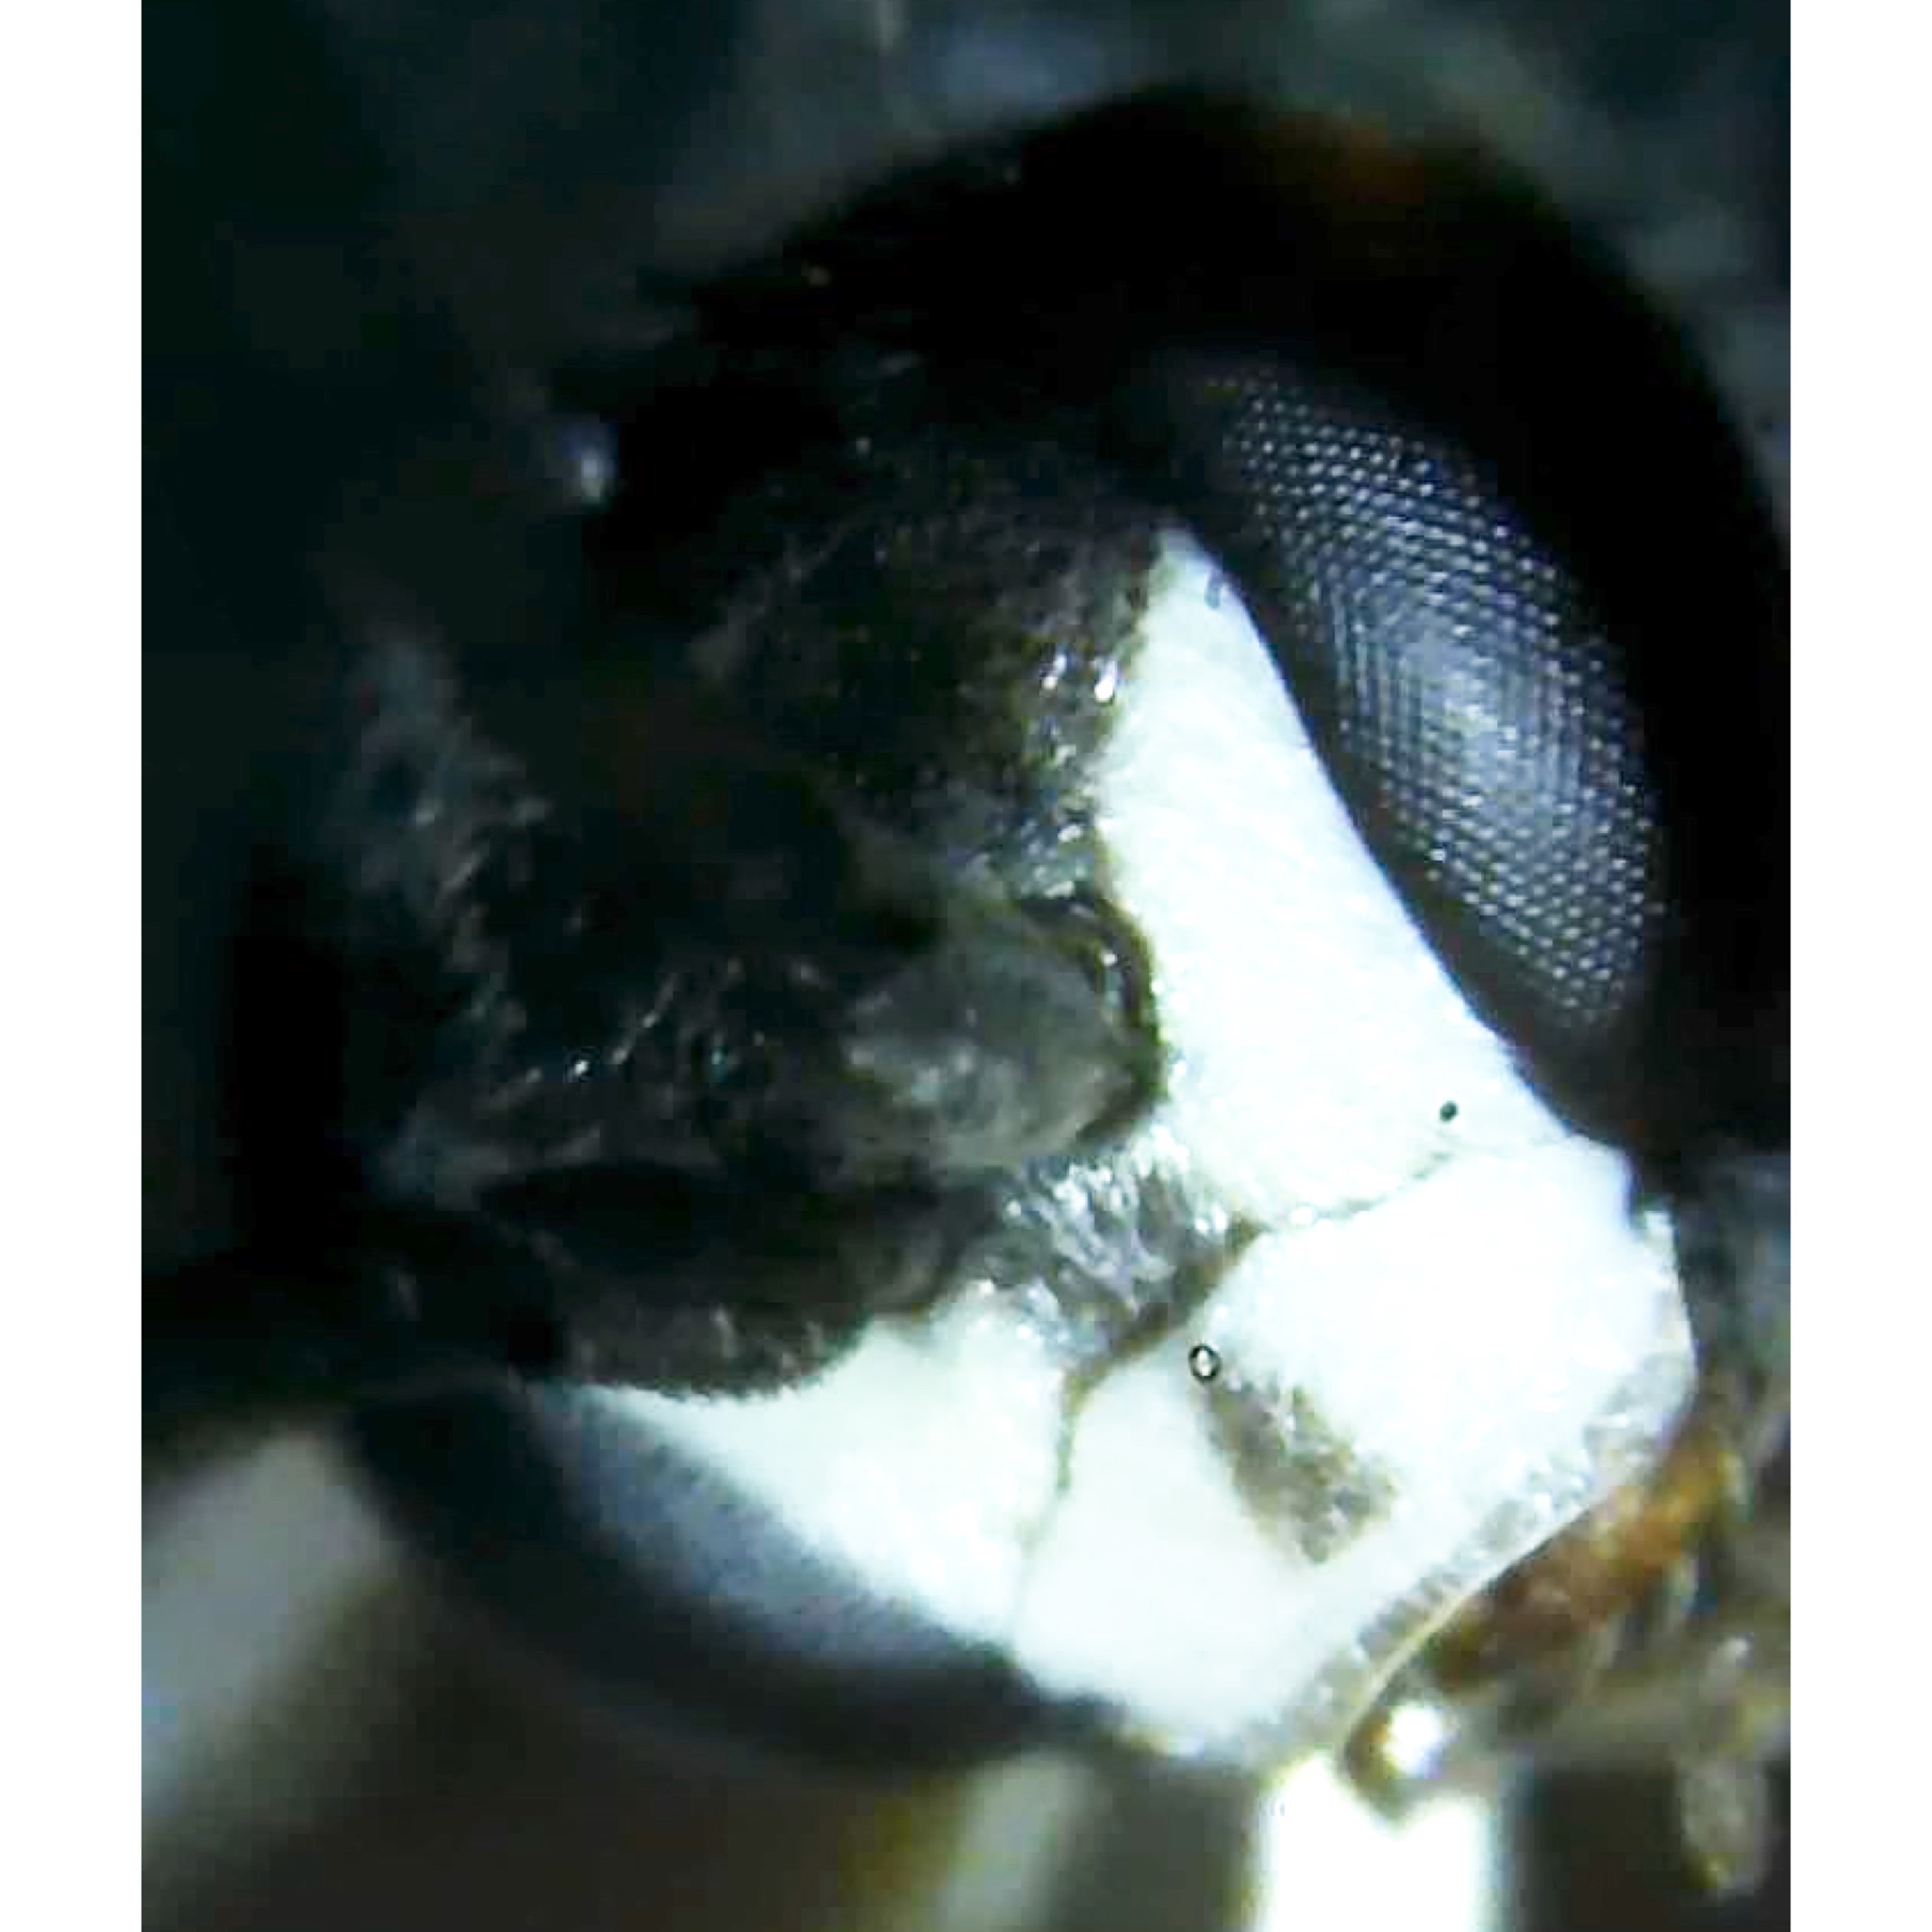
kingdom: Animalia
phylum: Arthropoda
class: Insecta
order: Hymenoptera
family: Pompilidae
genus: Auplopus
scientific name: Auplopus mellipes
